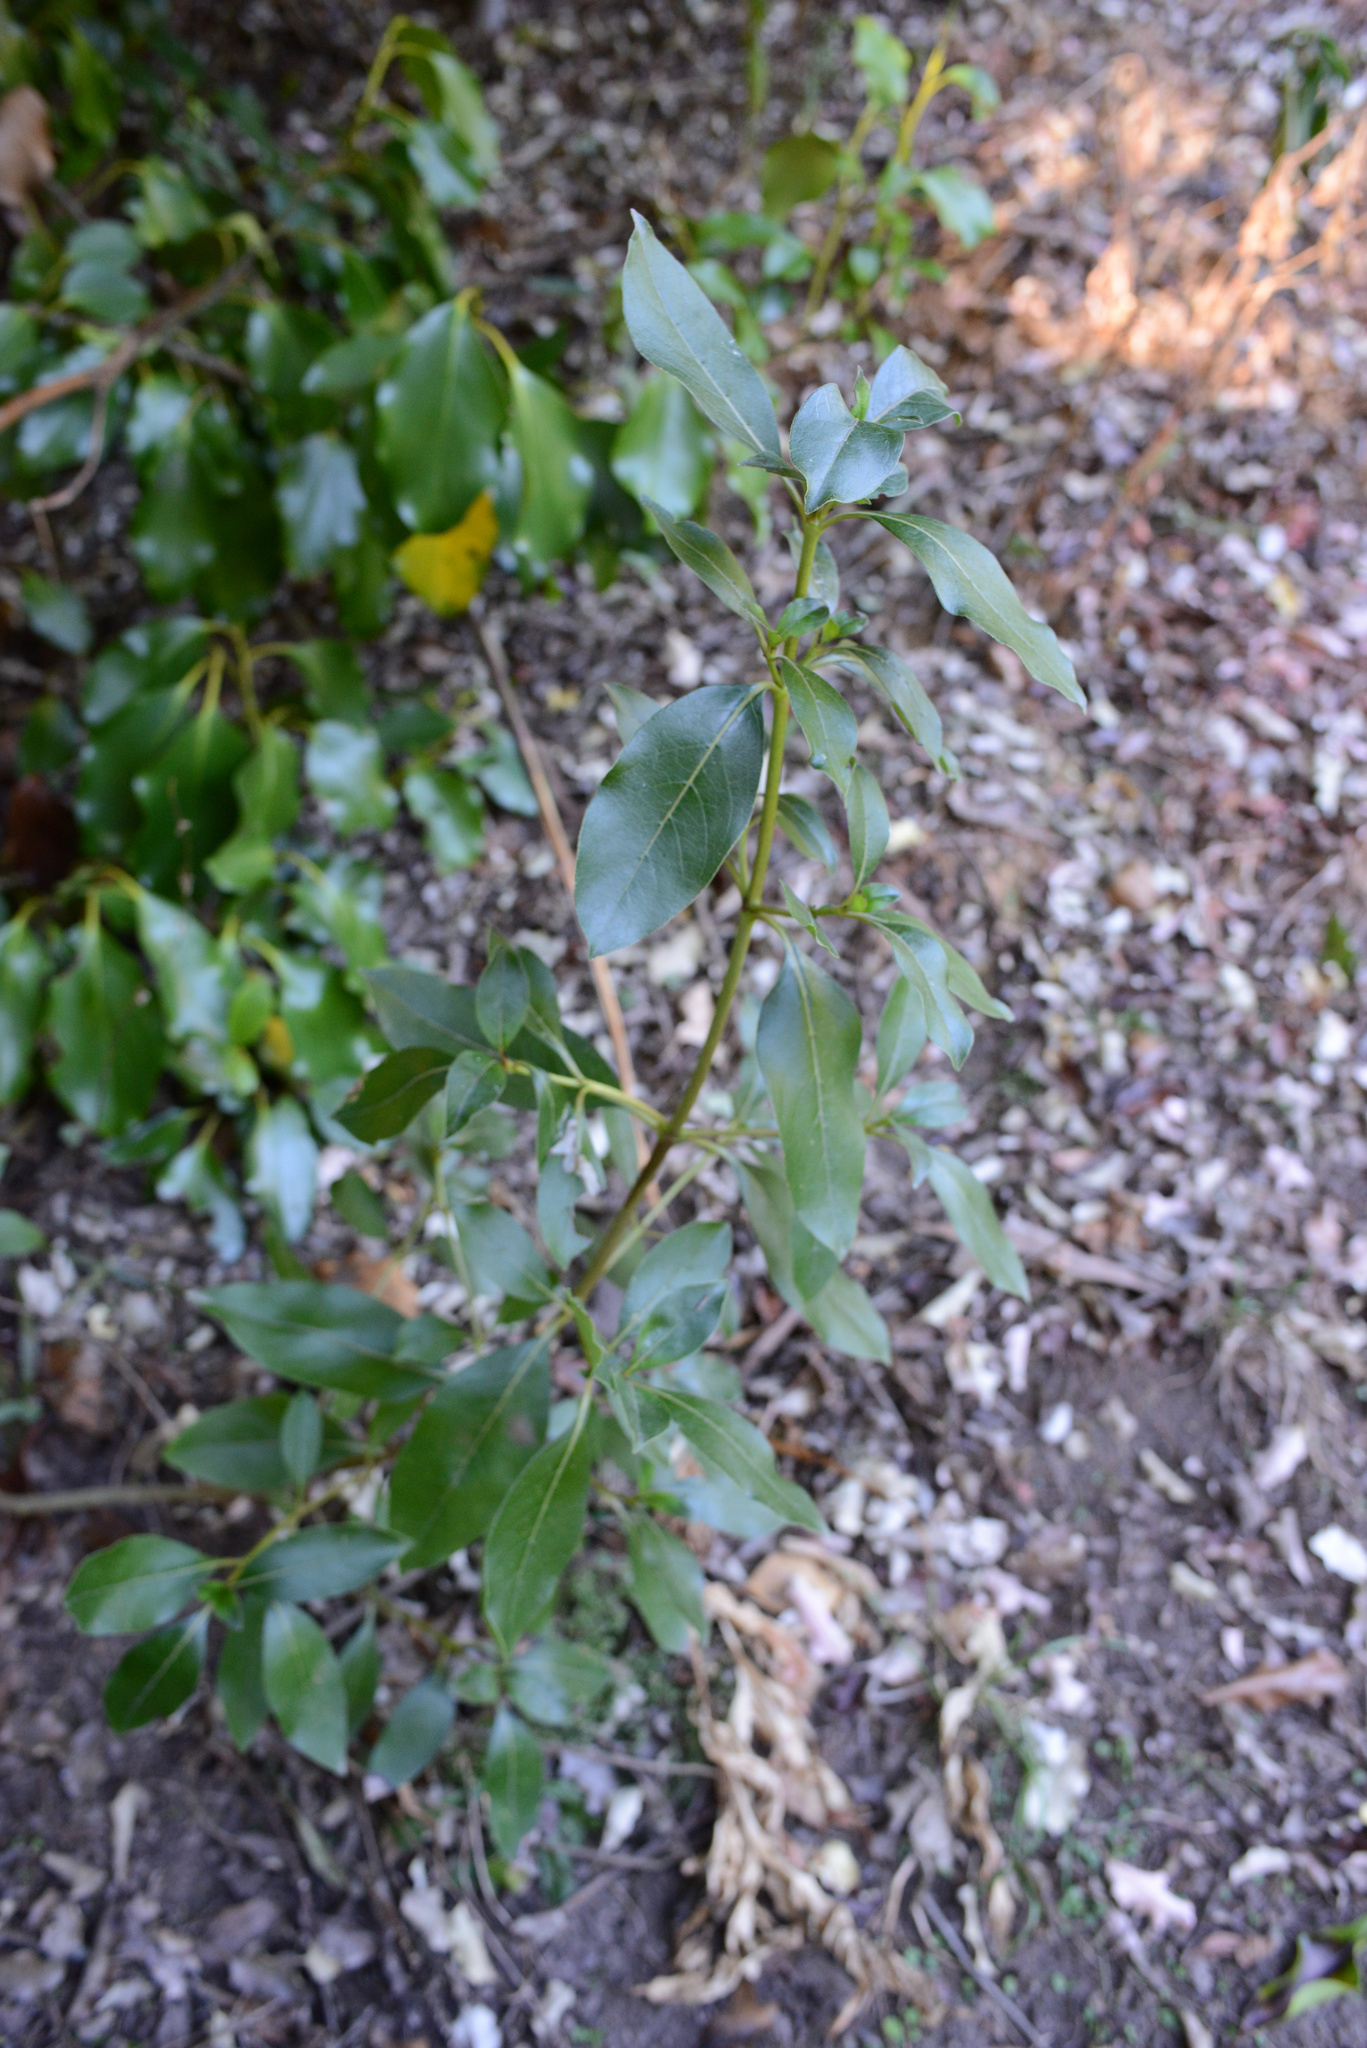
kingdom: Plantae
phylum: Tracheophyta
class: Magnoliopsida
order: Gentianales
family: Rubiaceae
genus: Coprosma
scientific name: Coprosma robusta
